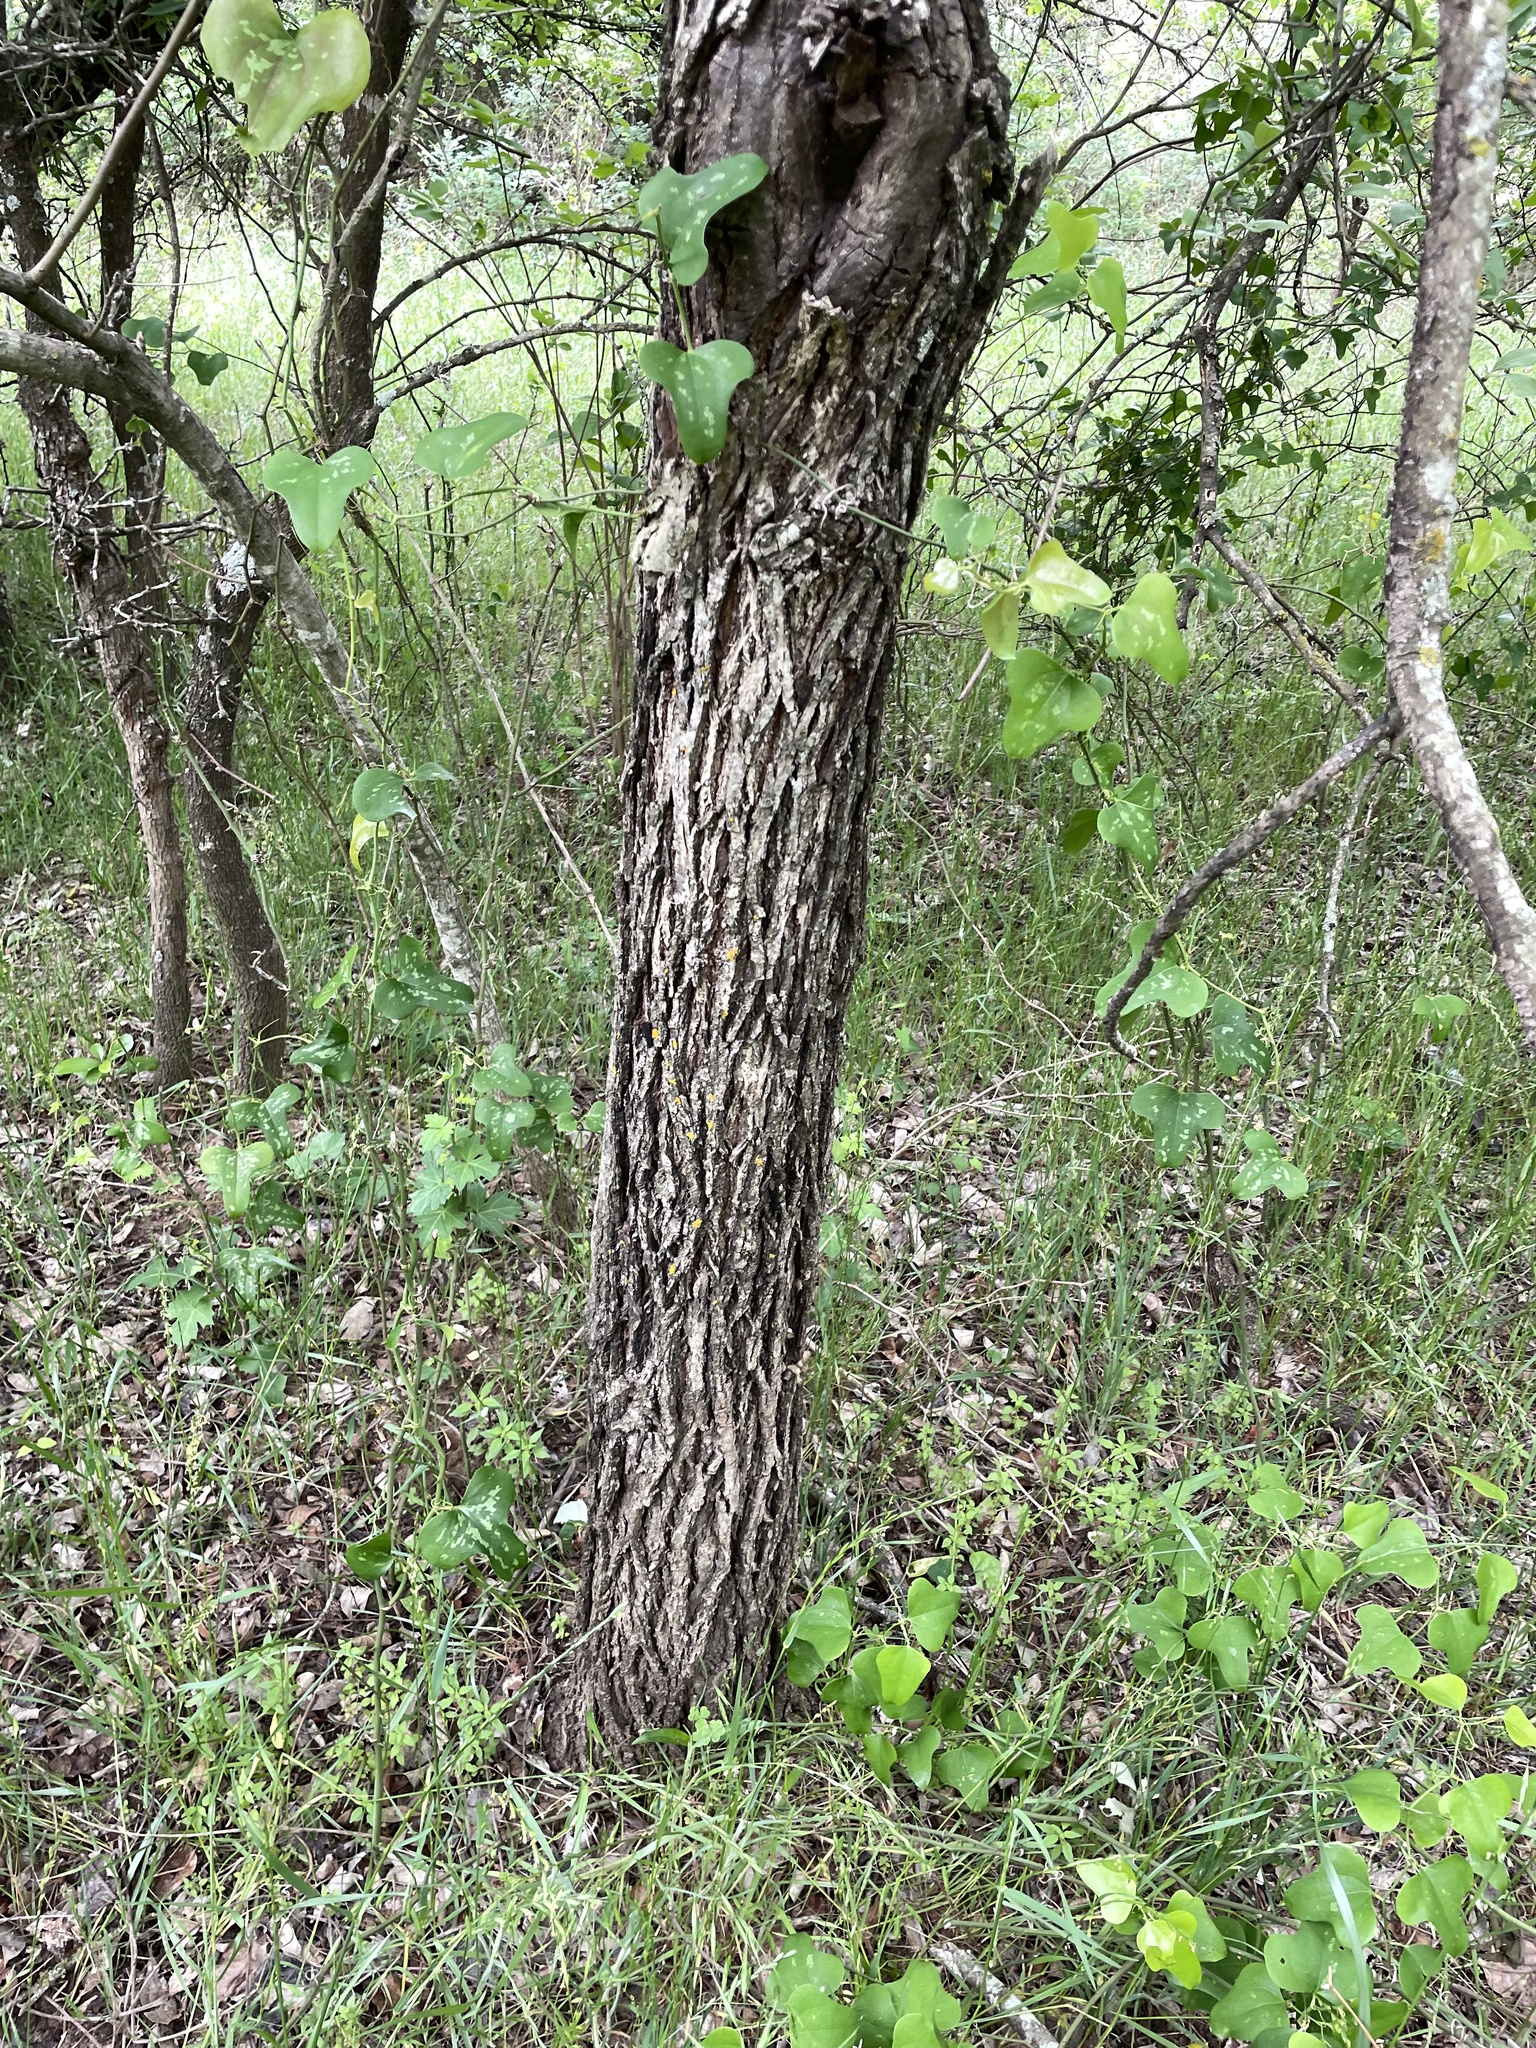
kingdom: Plantae
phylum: Tracheophyta
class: Magnoliopsida
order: Fagales
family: Juglandaceae
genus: Juglans
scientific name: Juglans nigra
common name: Black walnut
